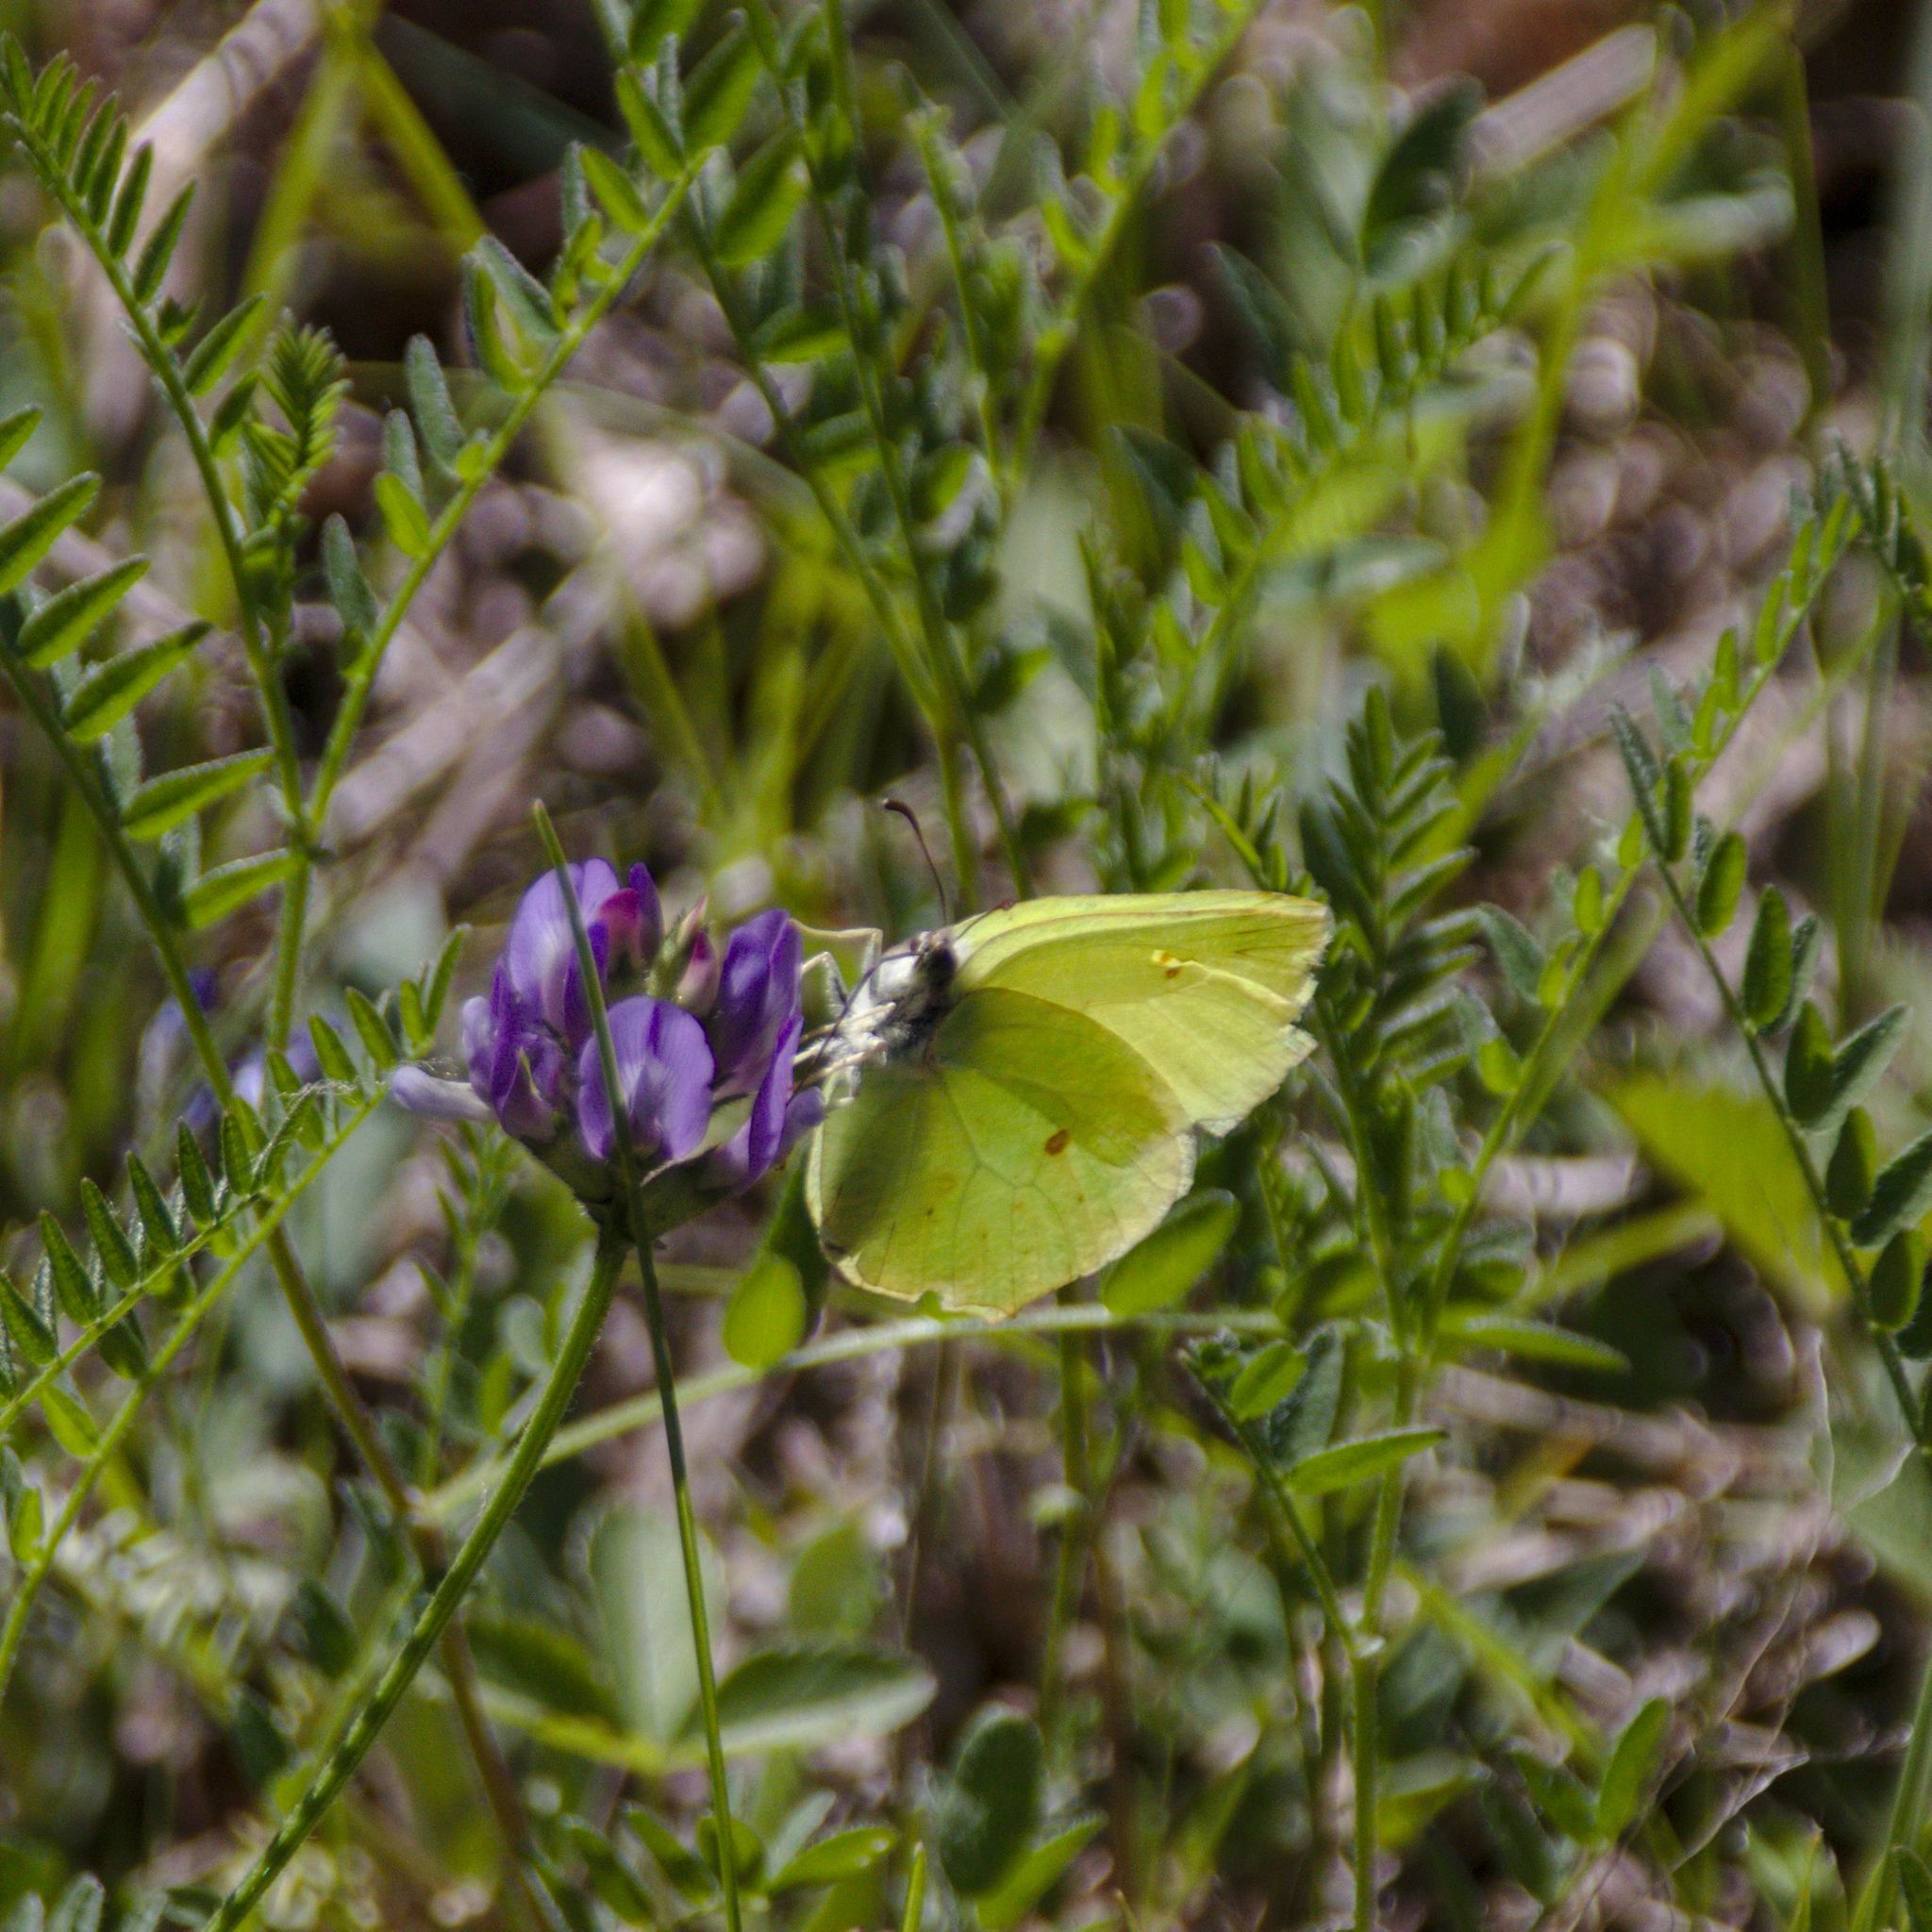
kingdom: Animalia
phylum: Arthropoda
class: Insecta
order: Lepidoptera
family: Pieridae
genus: Gonepteryx
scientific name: Gonepteryx rhamni
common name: Brimstone
